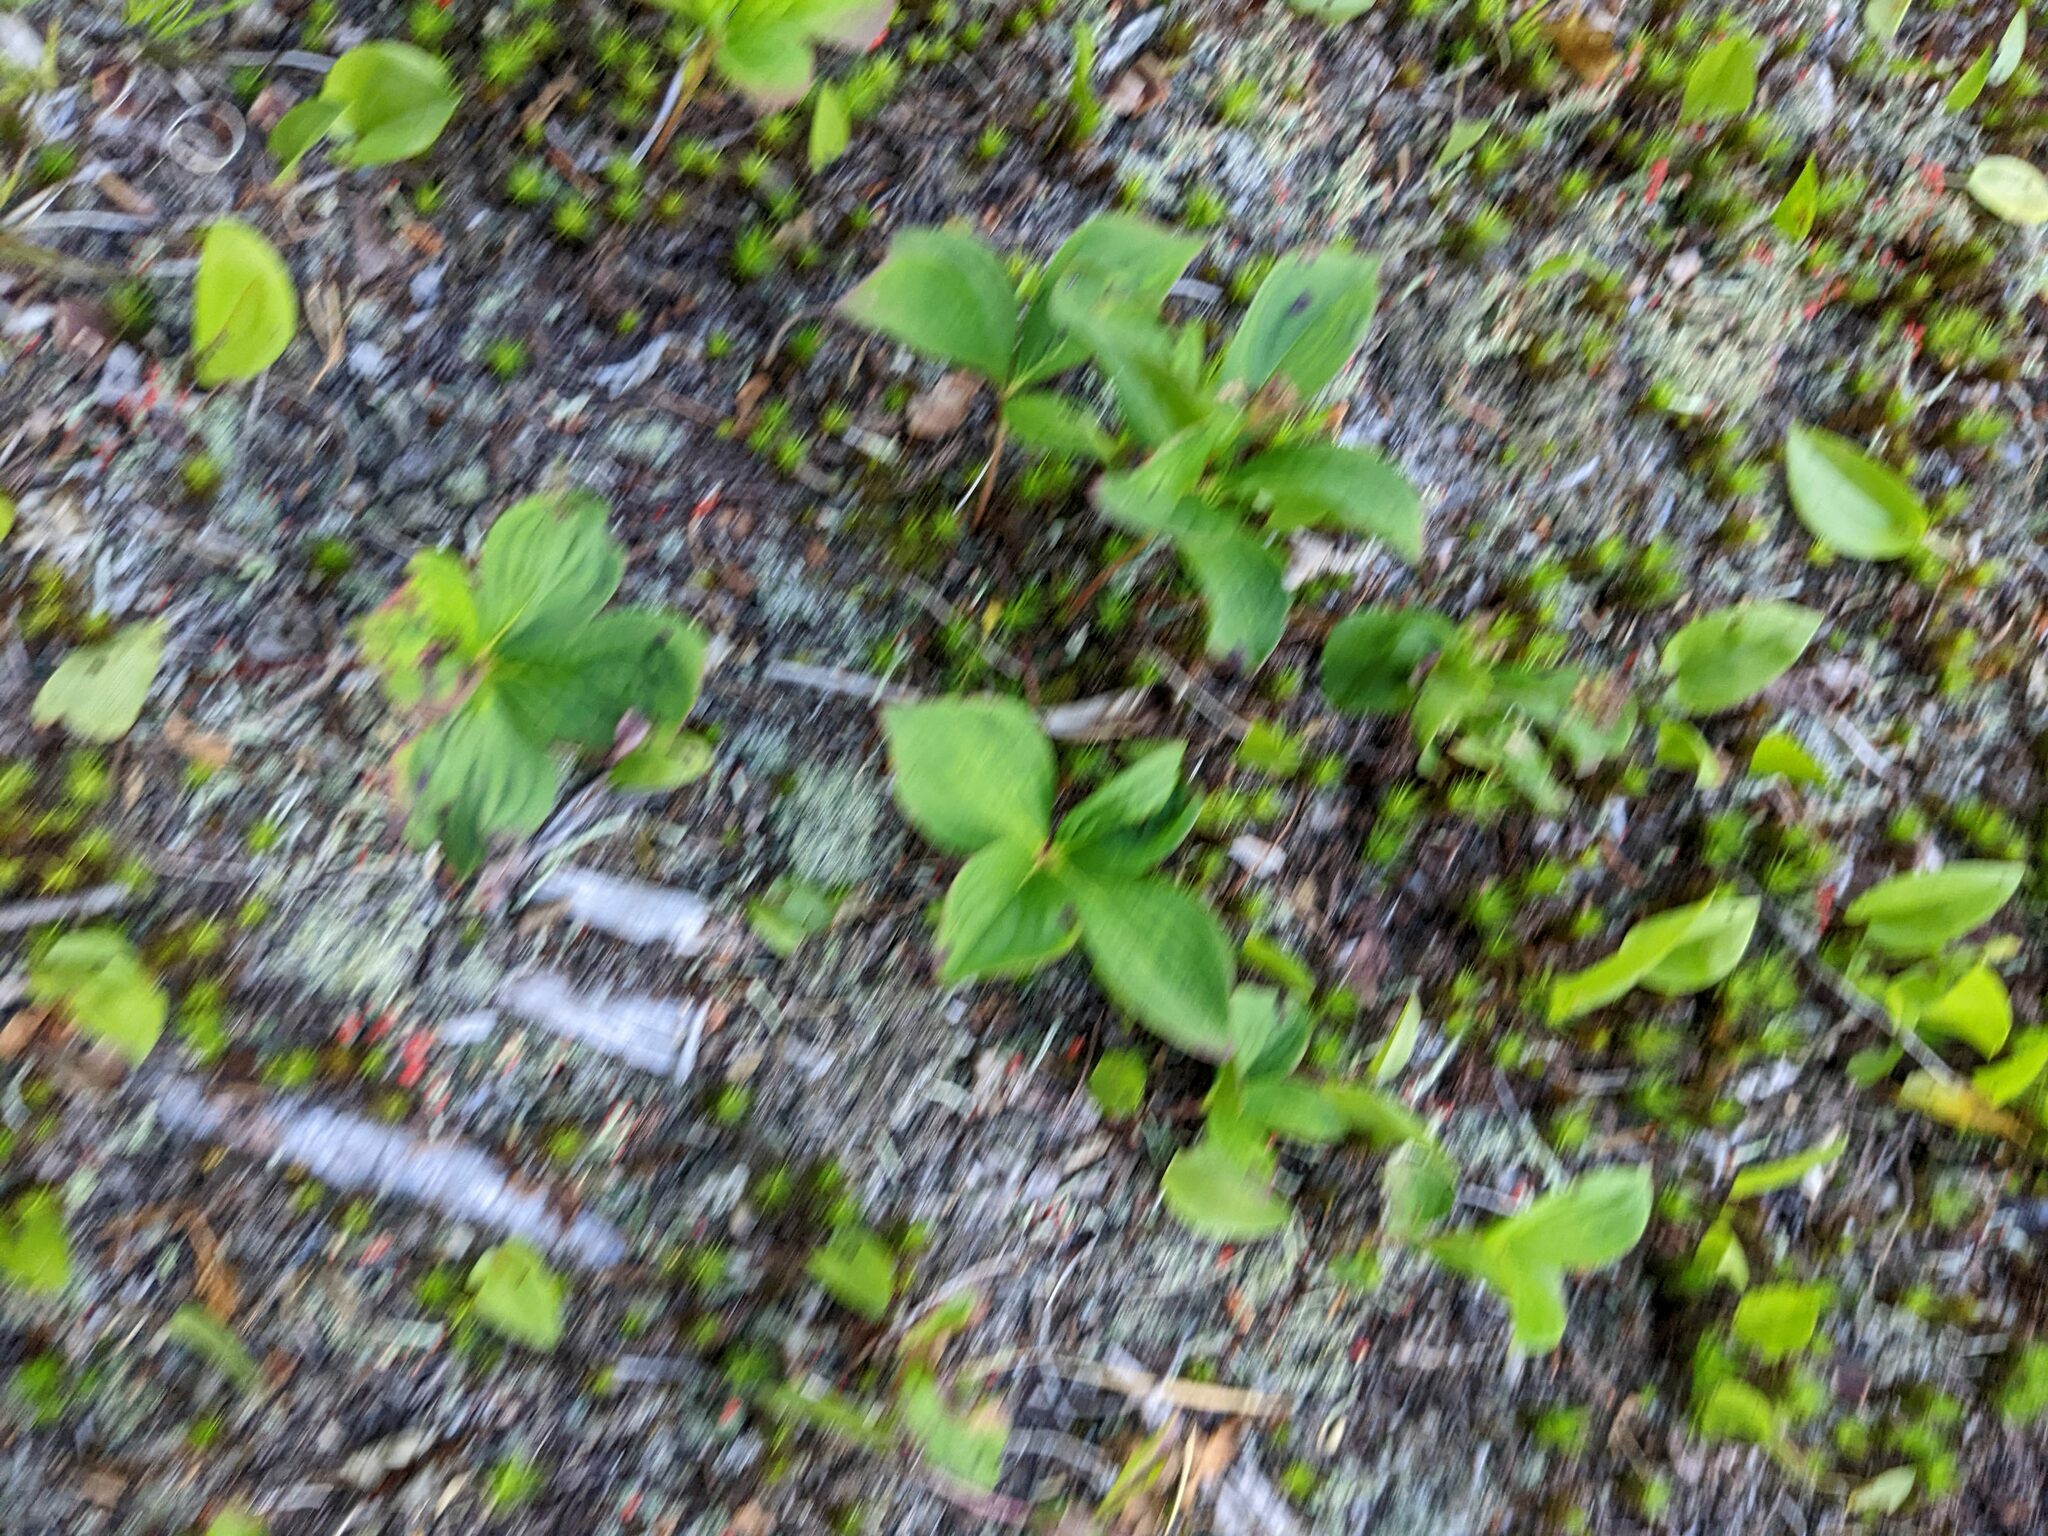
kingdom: Plantae
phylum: Tracheophyta
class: Magnoliopsida
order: Cornales
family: Cornaceae
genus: Cornus
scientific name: Cornus canadensis
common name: Creeping dogwood
